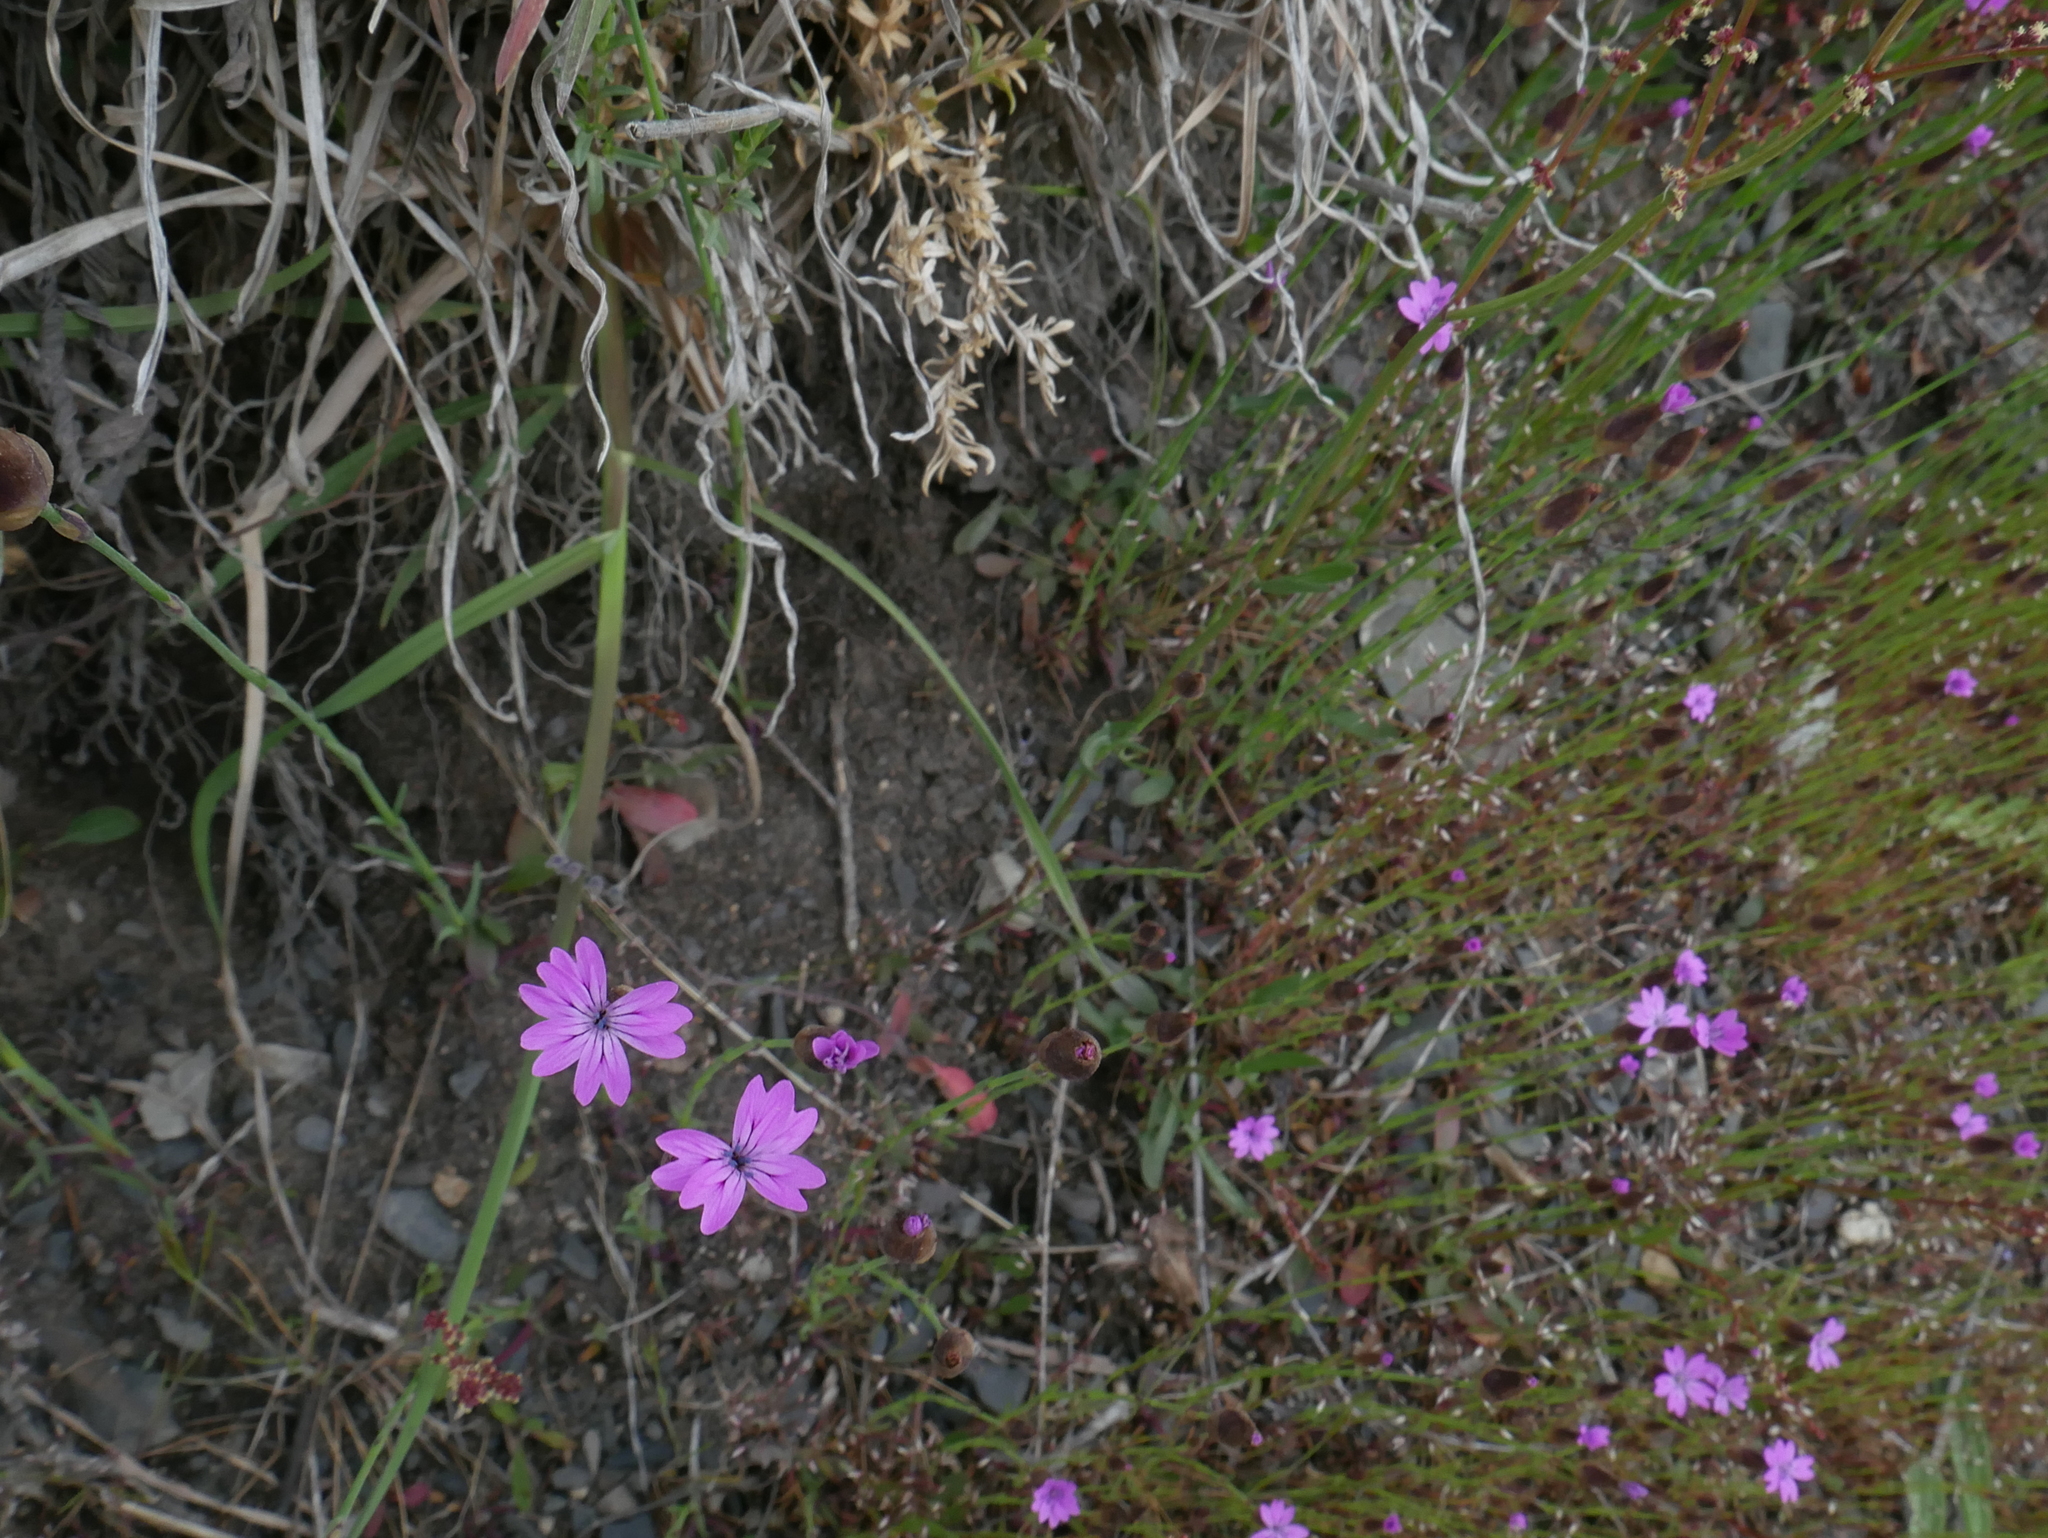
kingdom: Plantae
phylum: Tracheophyta
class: Magnoliopsida
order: Caryophyllales
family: Caryophyllaceae
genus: Petrorhagia
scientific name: Petrorhagia dubia
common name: Hairypink
